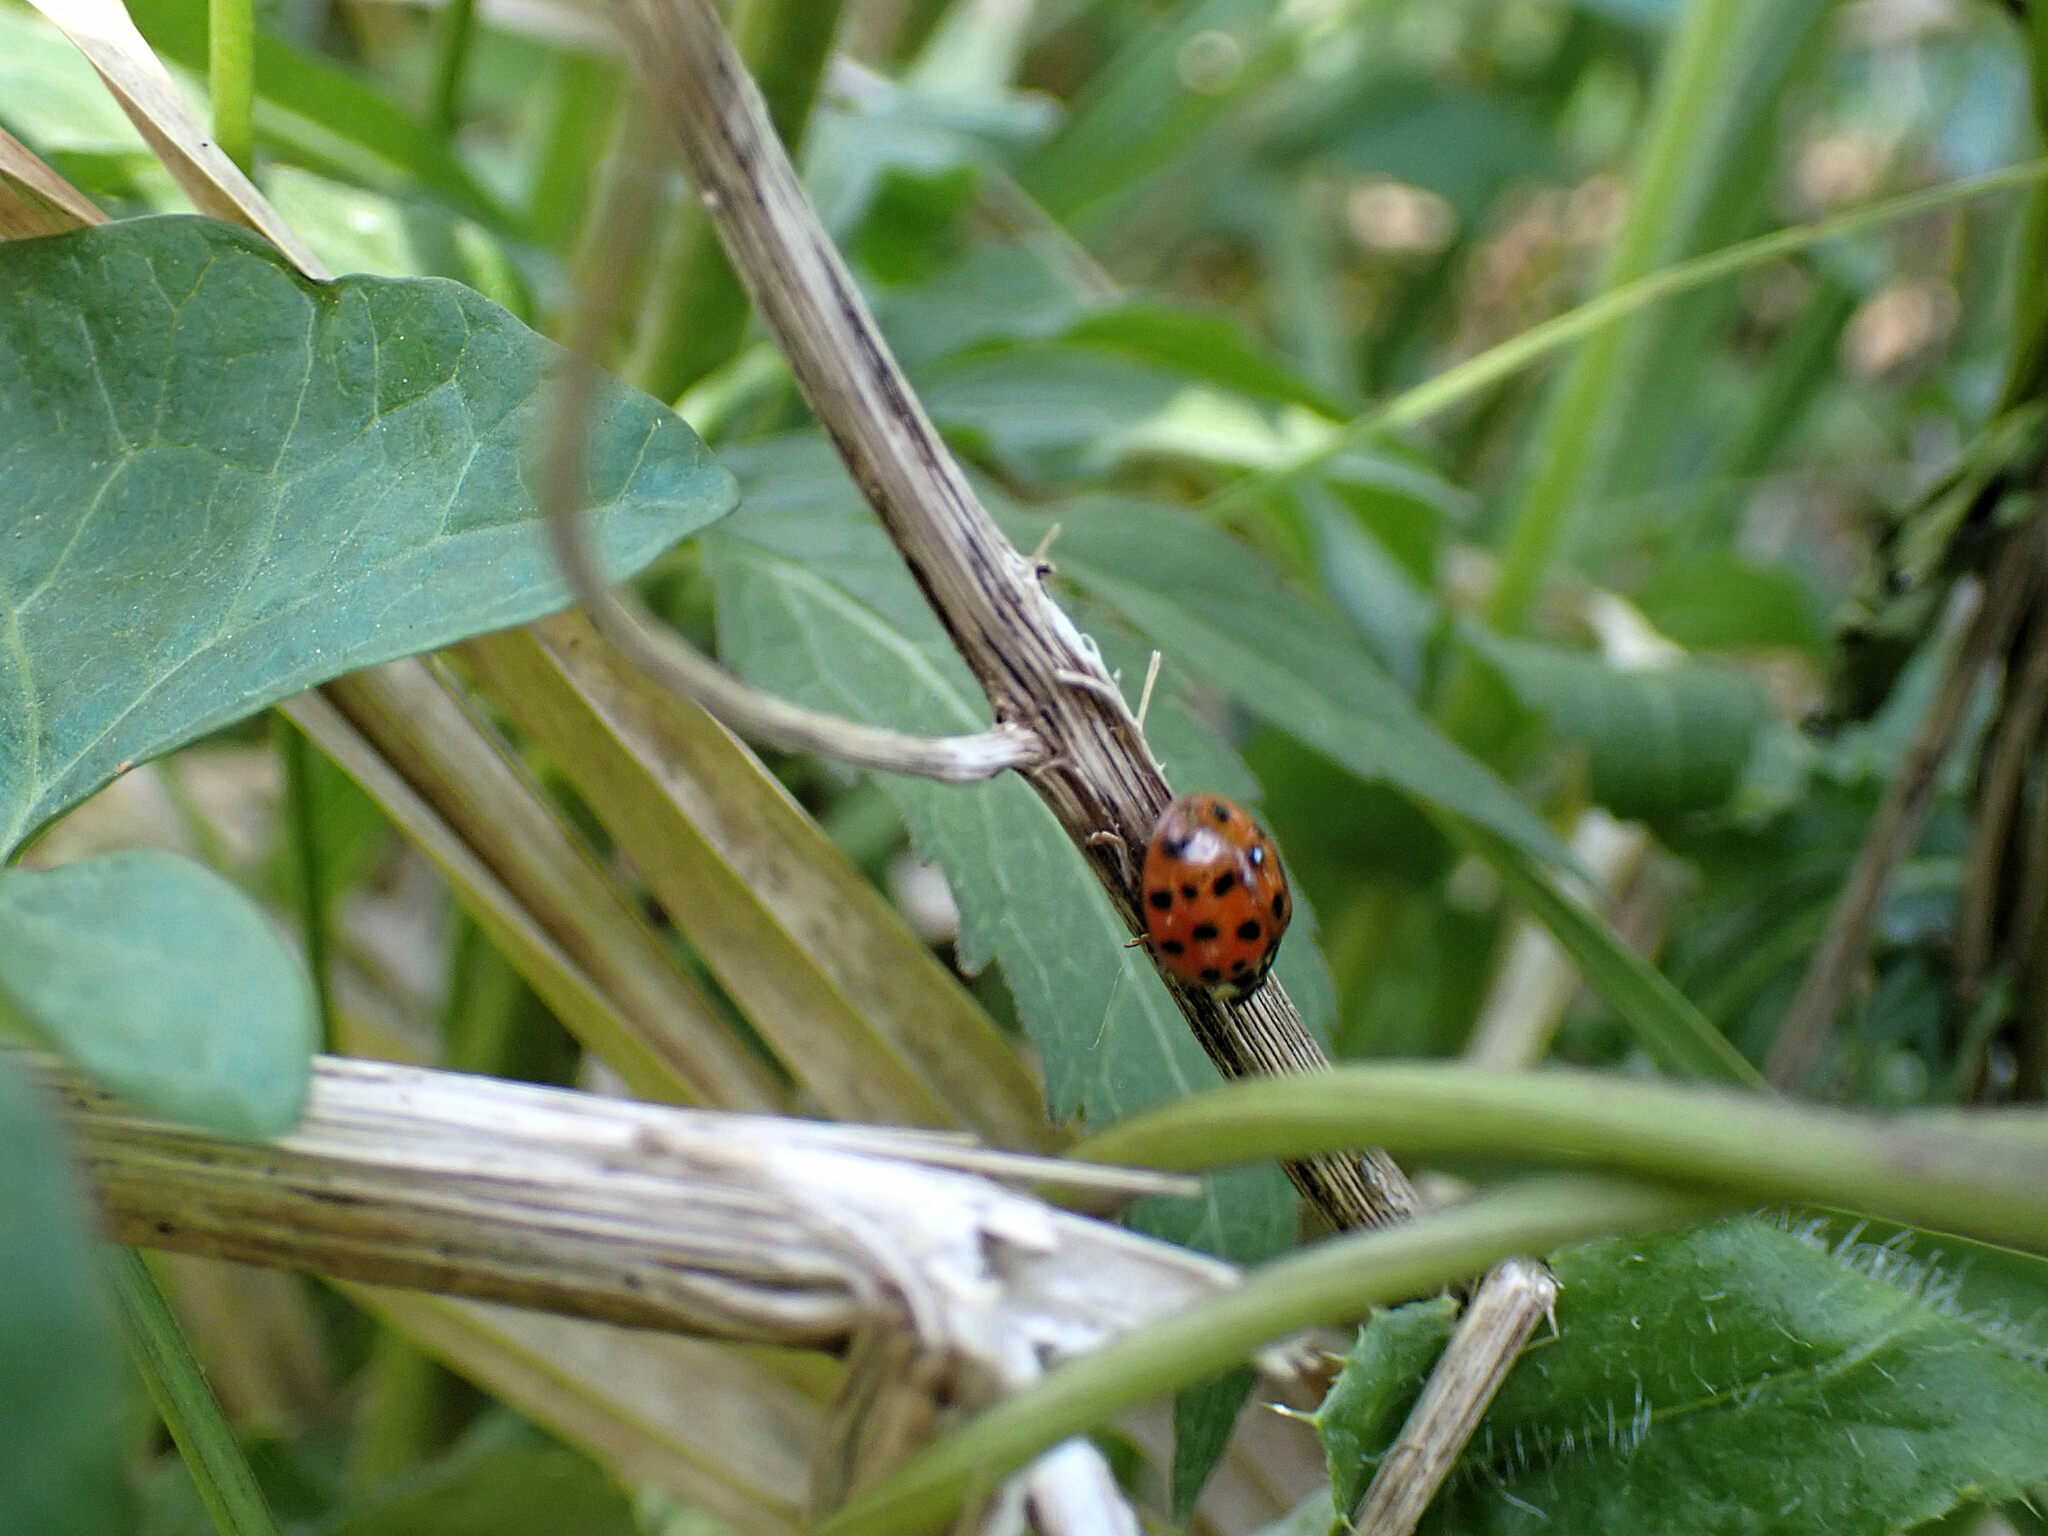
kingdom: Animalia
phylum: Arthropoda
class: Insecta
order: Coleoptera
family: Coccinellidae
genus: Harmonia
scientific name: Harmonia axyridis
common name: Harlequin ladybird
